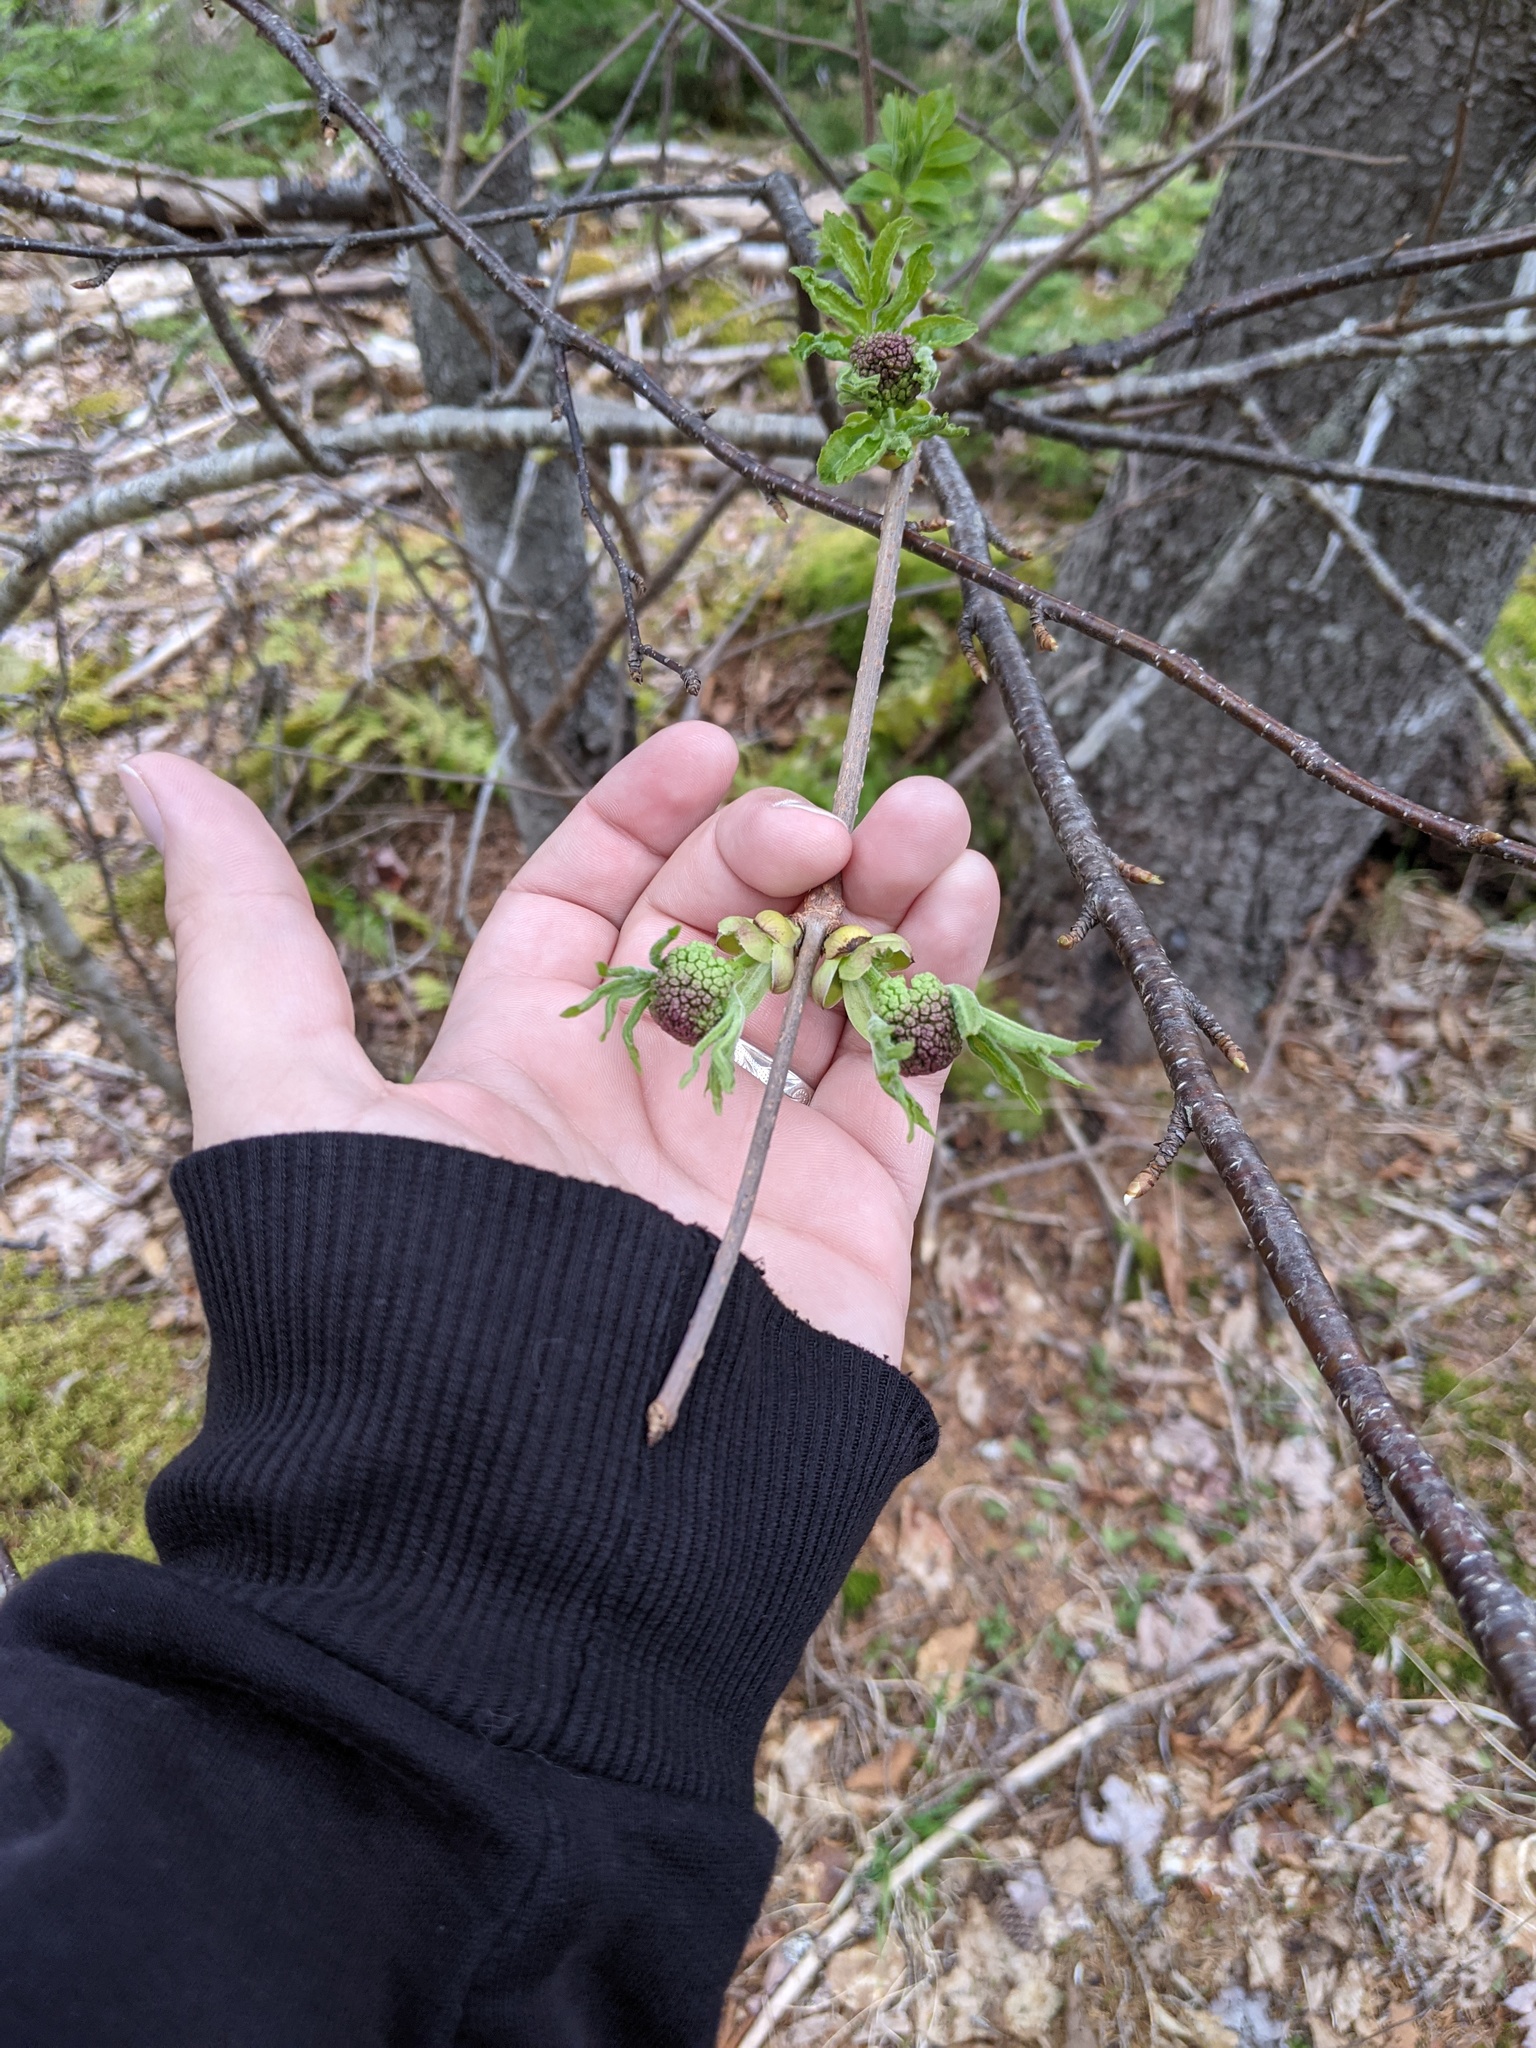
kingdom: Plantae
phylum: Tracheophyta
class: Magnoliopsida
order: Dipsacales
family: Viburnaceae
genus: Sambucus
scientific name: Sambucus racemosa
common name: Red-berried elder
